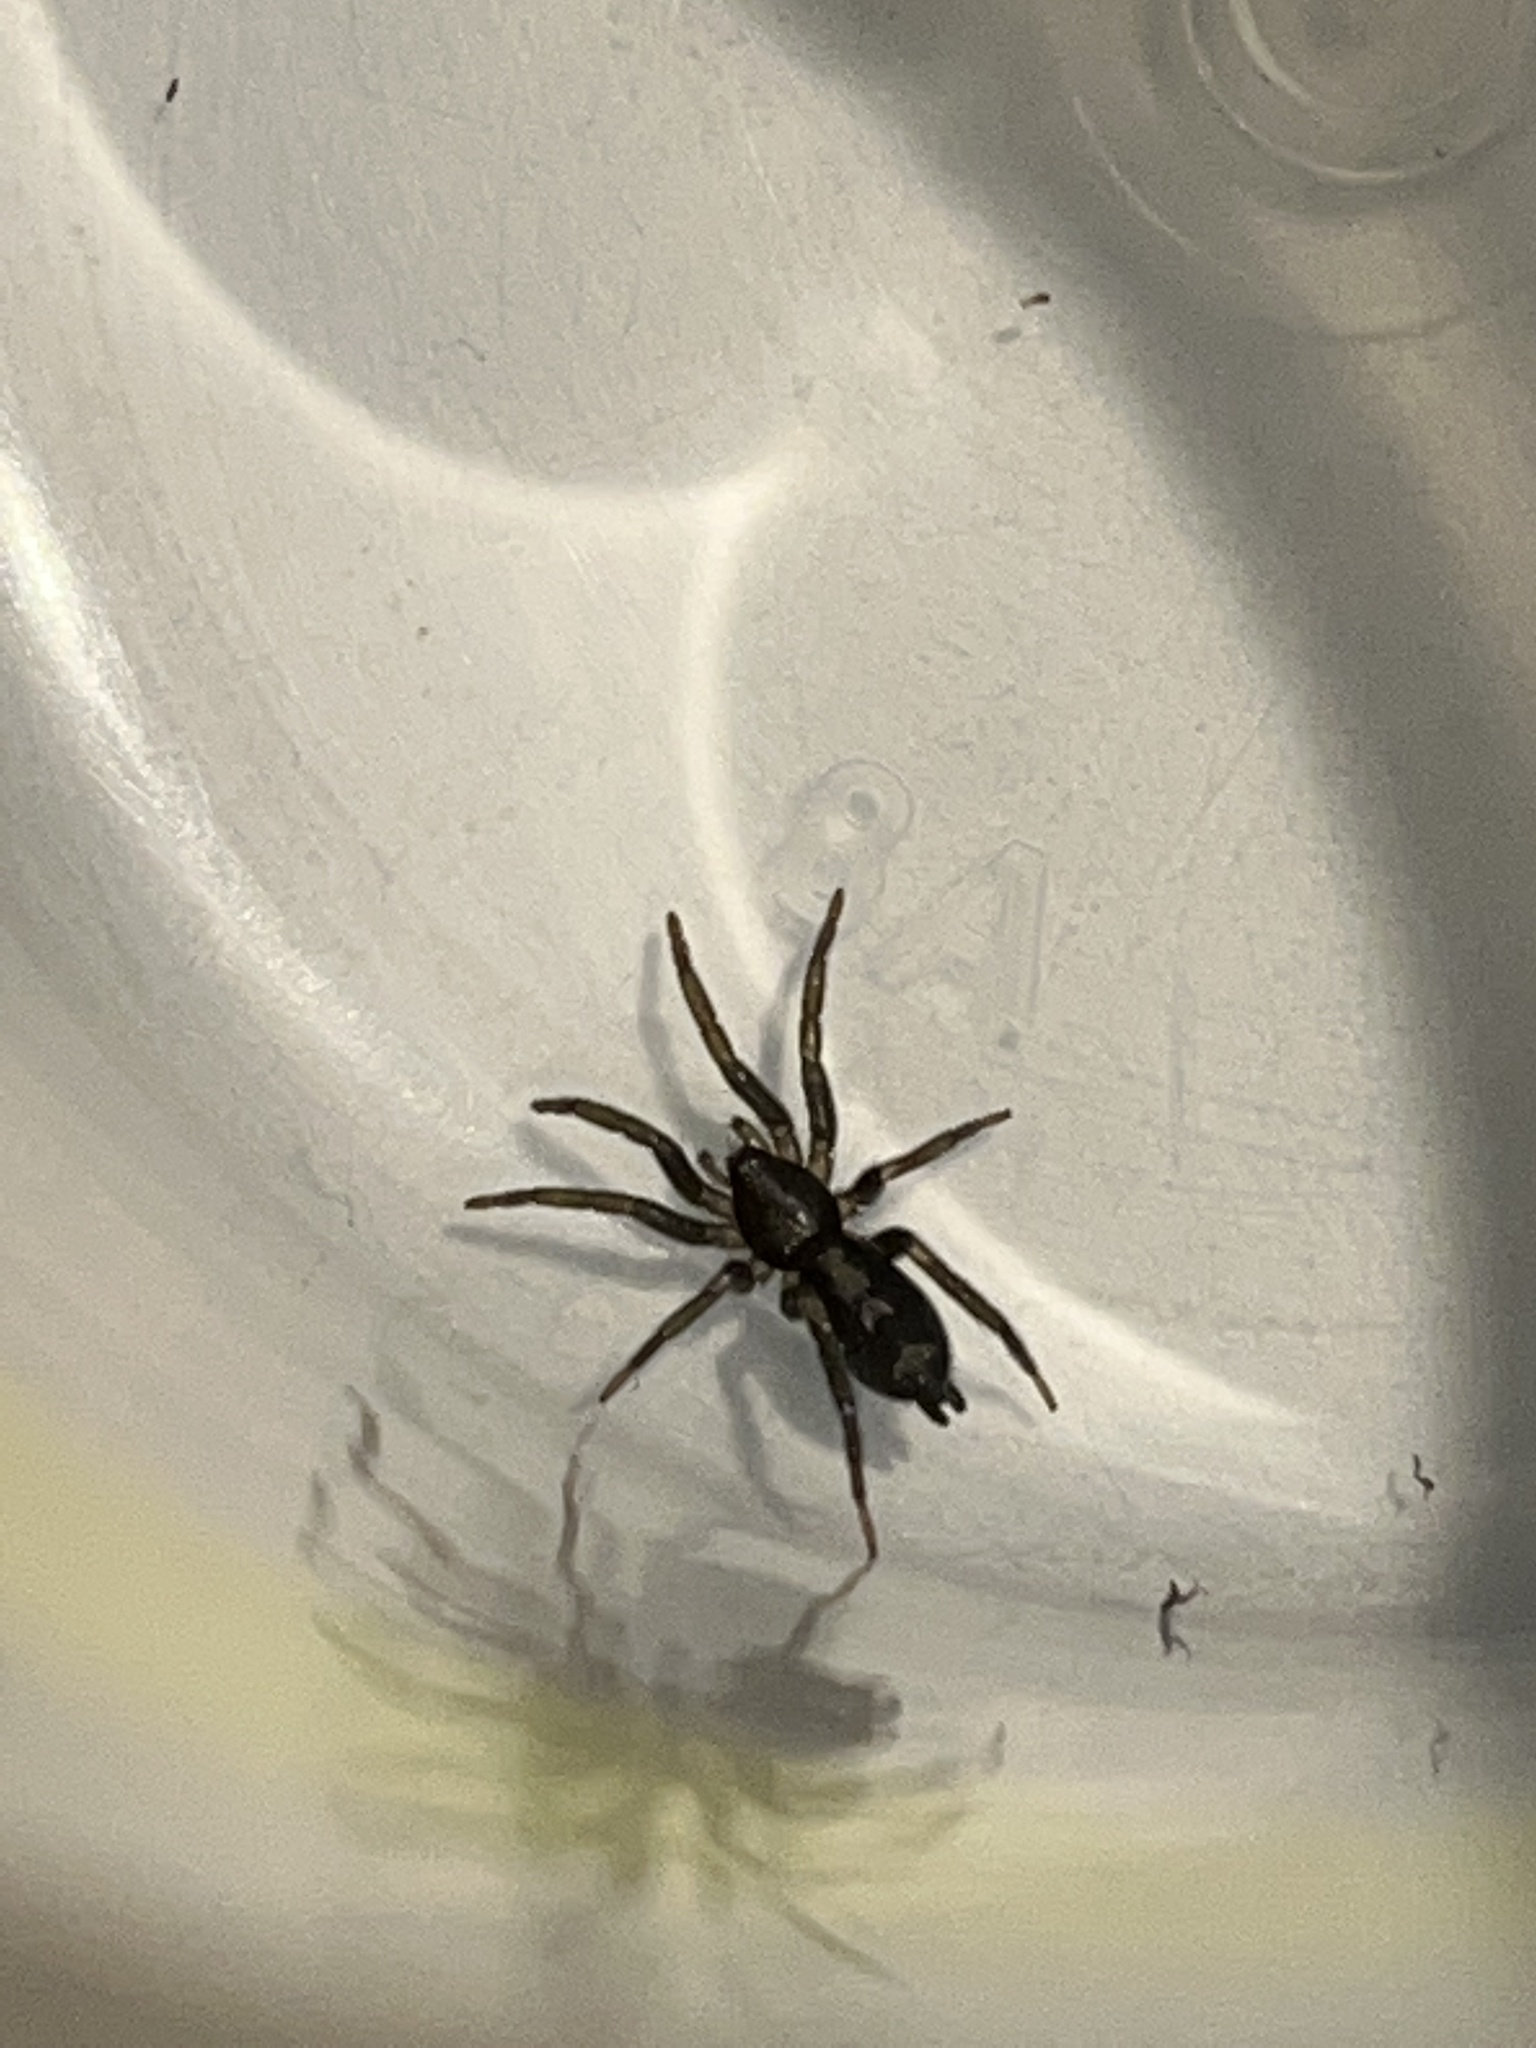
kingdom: Animalia
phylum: Arthropoda
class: Arachnida
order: Araneae
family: Gnaphosidae
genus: Herpyllus
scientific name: Herpyllus ecclesiasticus
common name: Eastern parson spider
